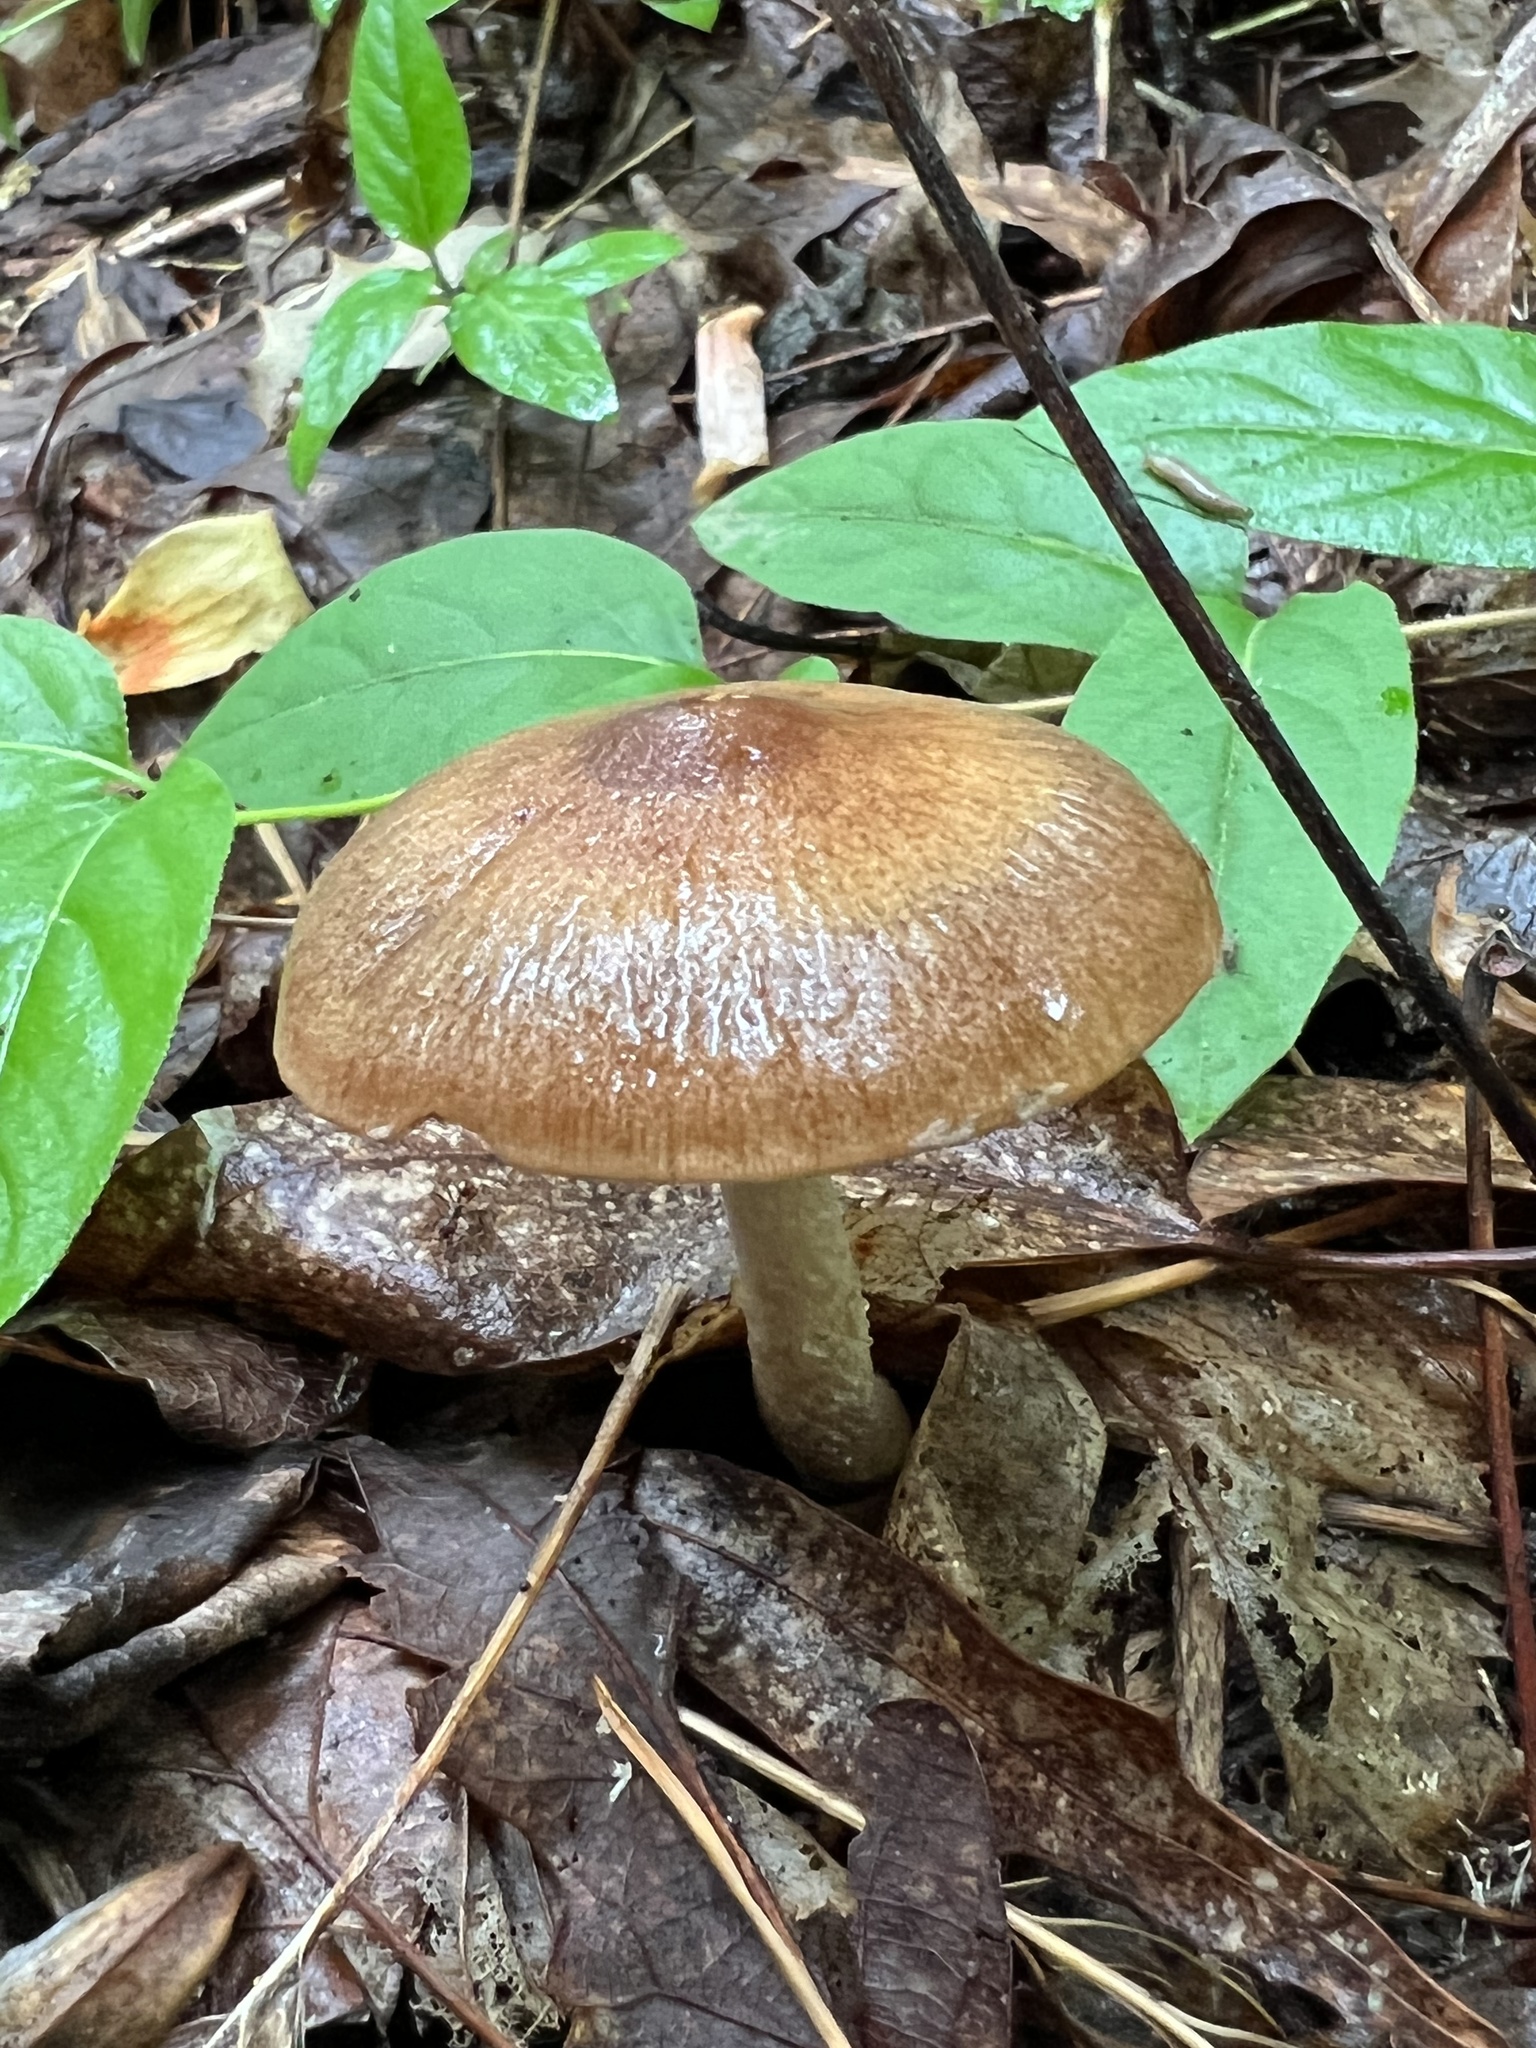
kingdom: Fungi
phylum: Basidiomycota
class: Agaricomycetes
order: Agaricales
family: Psathyrellaceae
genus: Psathyrella
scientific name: Psathyrella rugocephala
